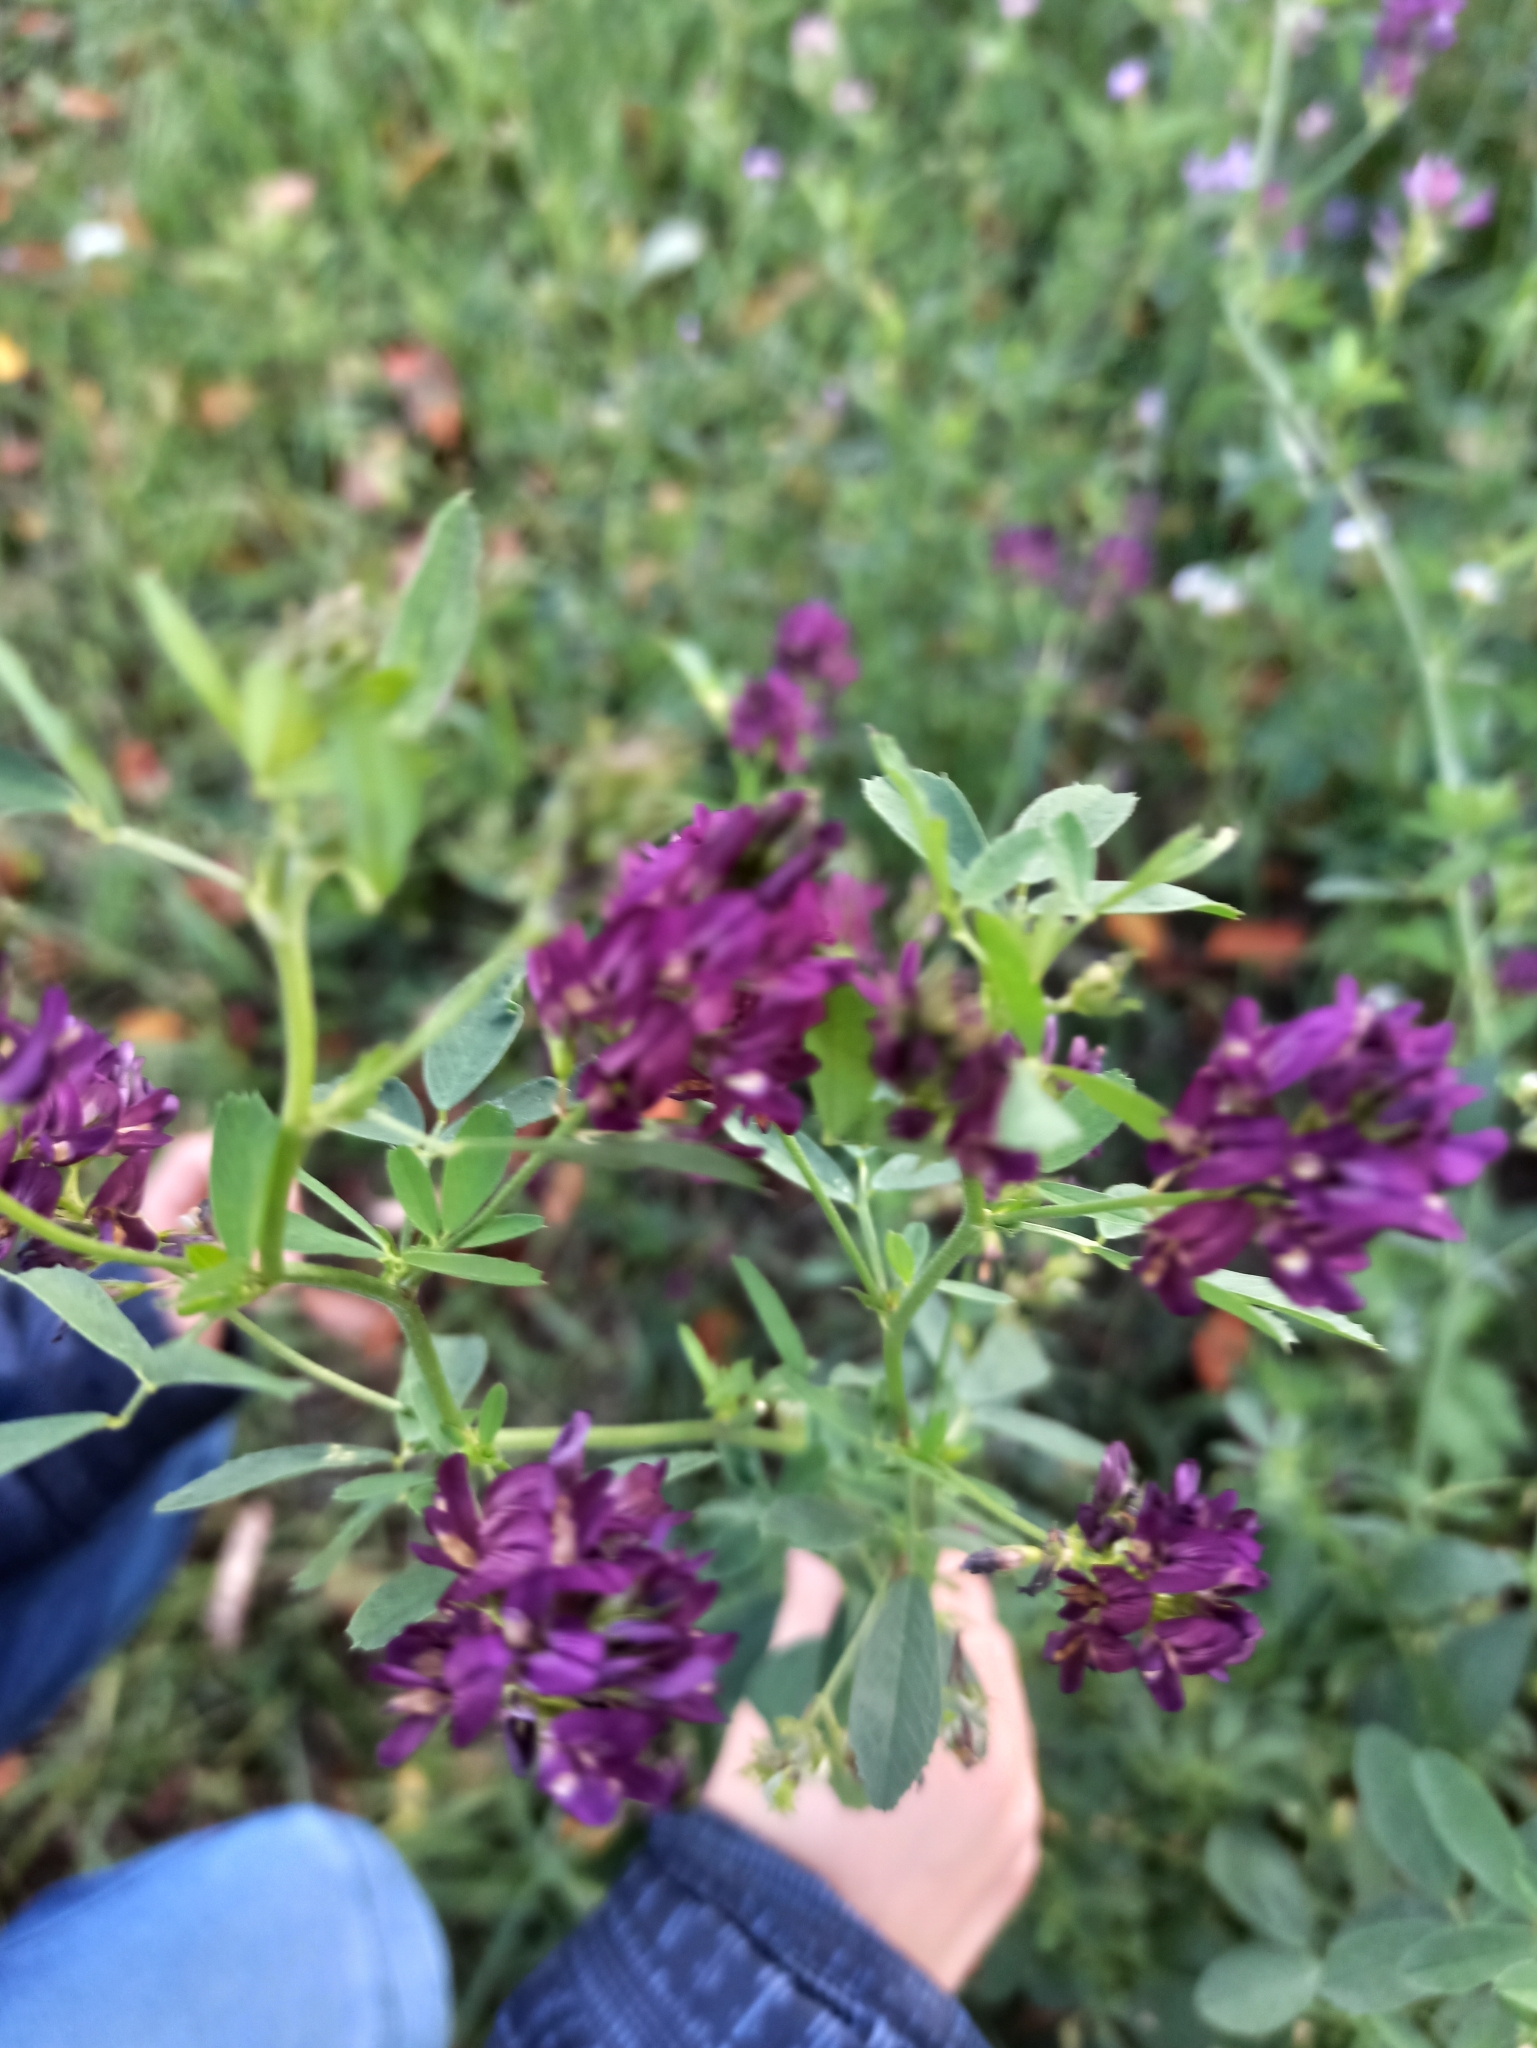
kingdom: Plantae
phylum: Tracheophyta
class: Magnoliopsida
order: Fabales
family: Fabaceae
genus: Medicago
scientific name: Medicago sativa
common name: Alfalfa
